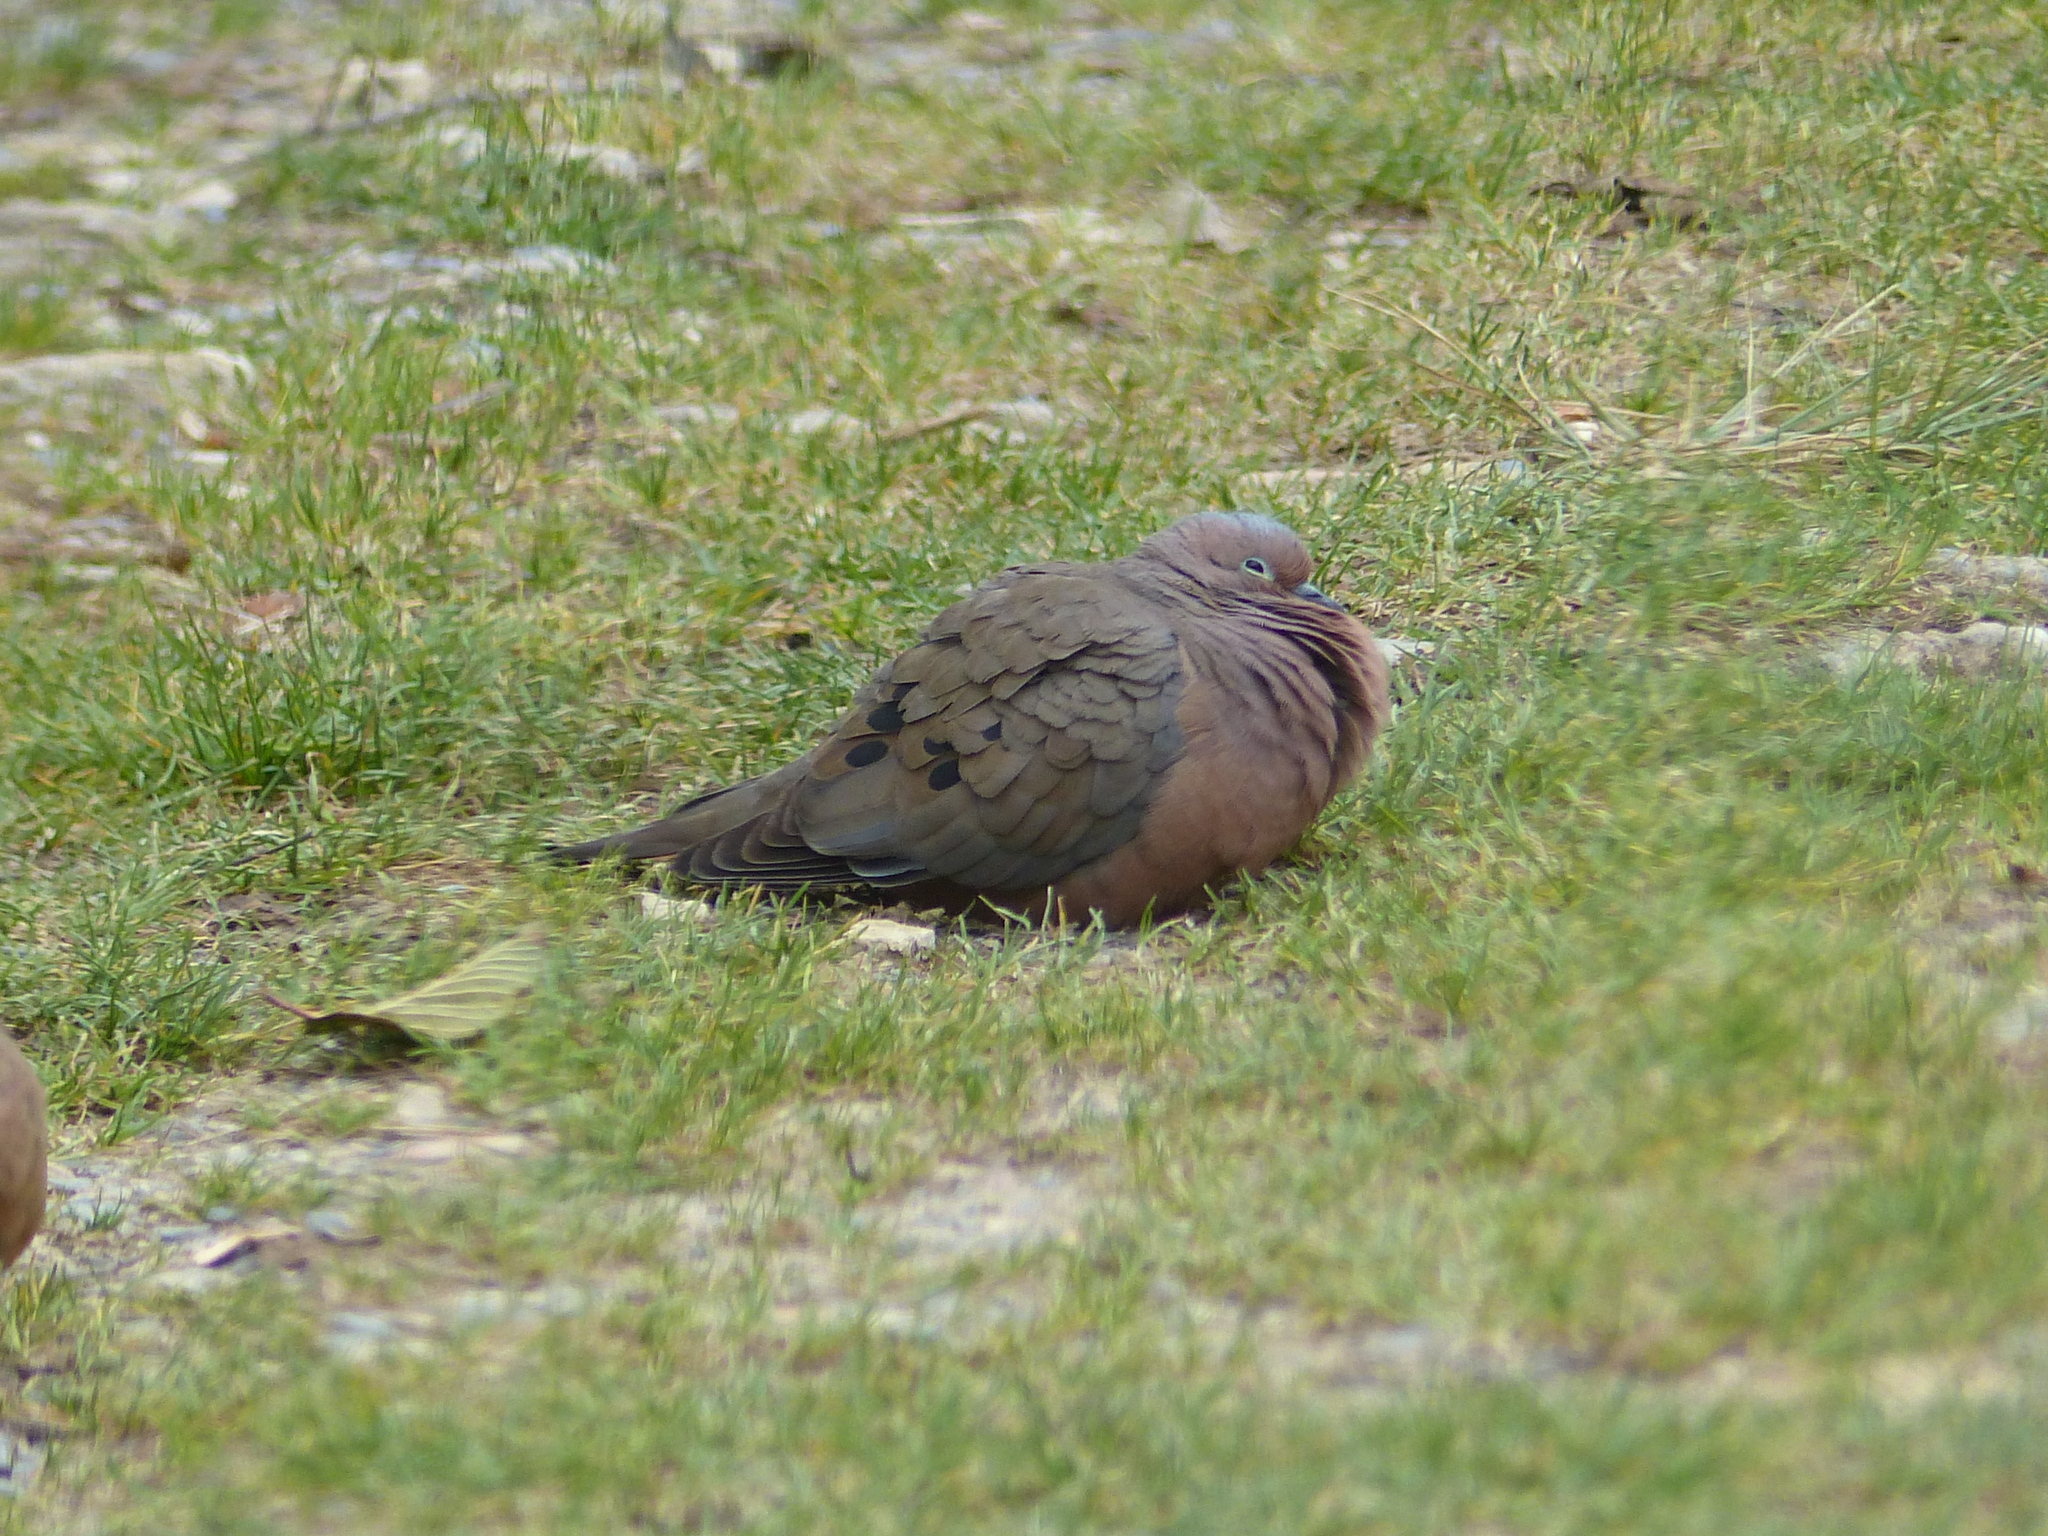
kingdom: Animalia
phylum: Chordata
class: Aves
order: Columbiformes
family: Columbidae
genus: Zenaida
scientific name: Zenaida auriculata
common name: Eared dove
